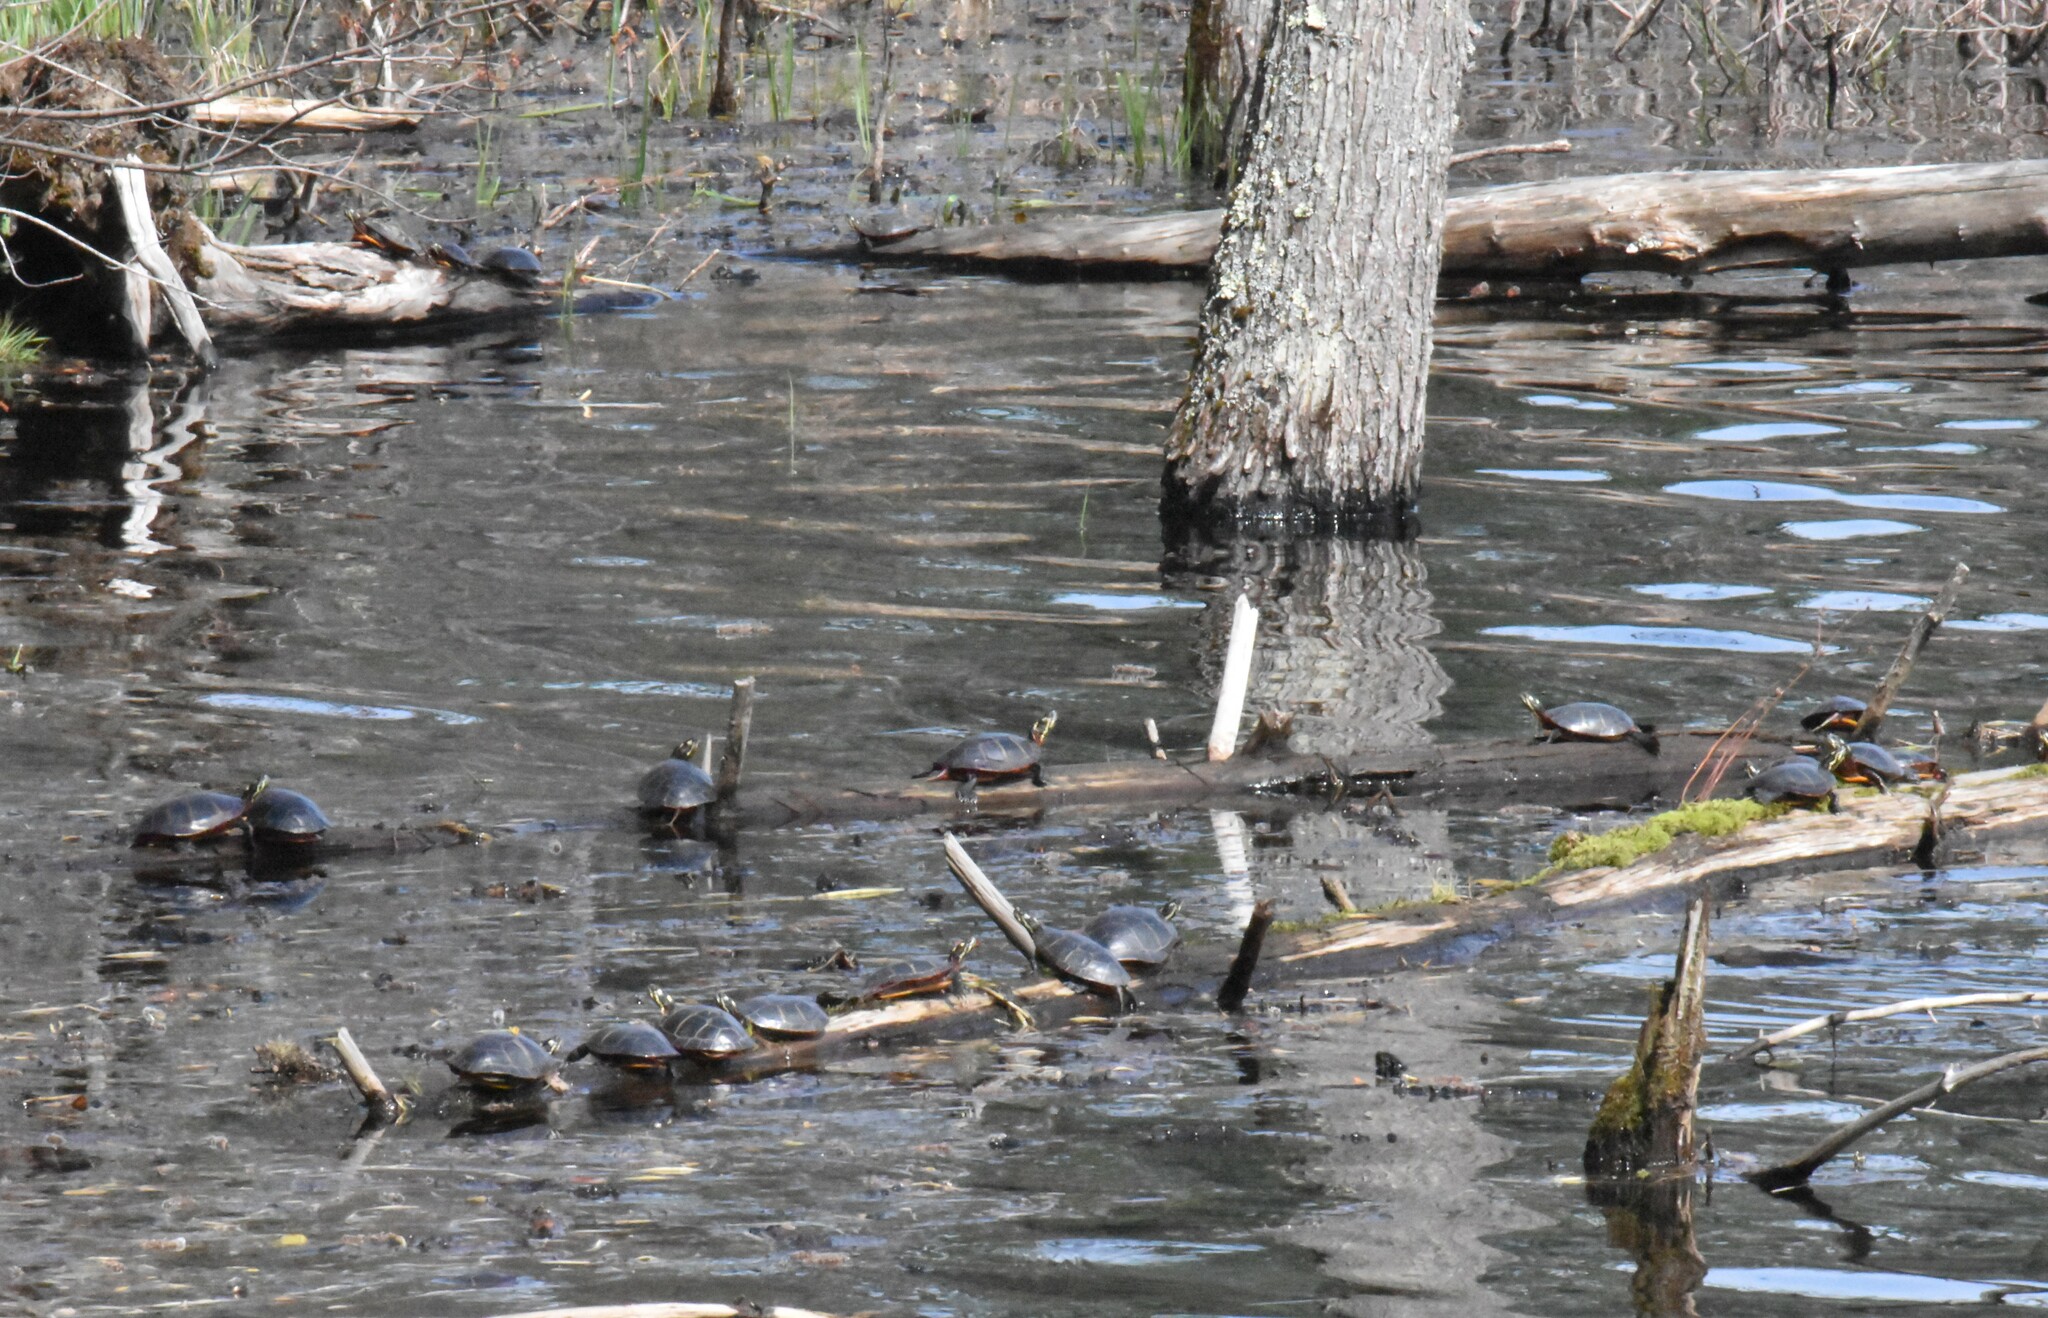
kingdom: Animalia
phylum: Chordata
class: Testudines
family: Emydidae
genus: Chrysemys
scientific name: Chrysemys picta
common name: Painted turtle
